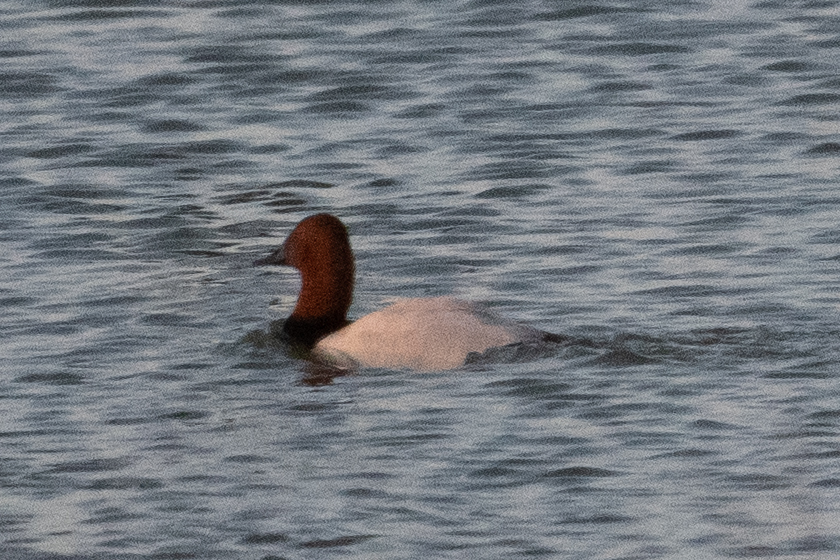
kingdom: Animalia
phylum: Chordata
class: Aves
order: Anseriformes
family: Anatidae
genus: Aythya
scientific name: Aythya valisineria
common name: Canvasback
